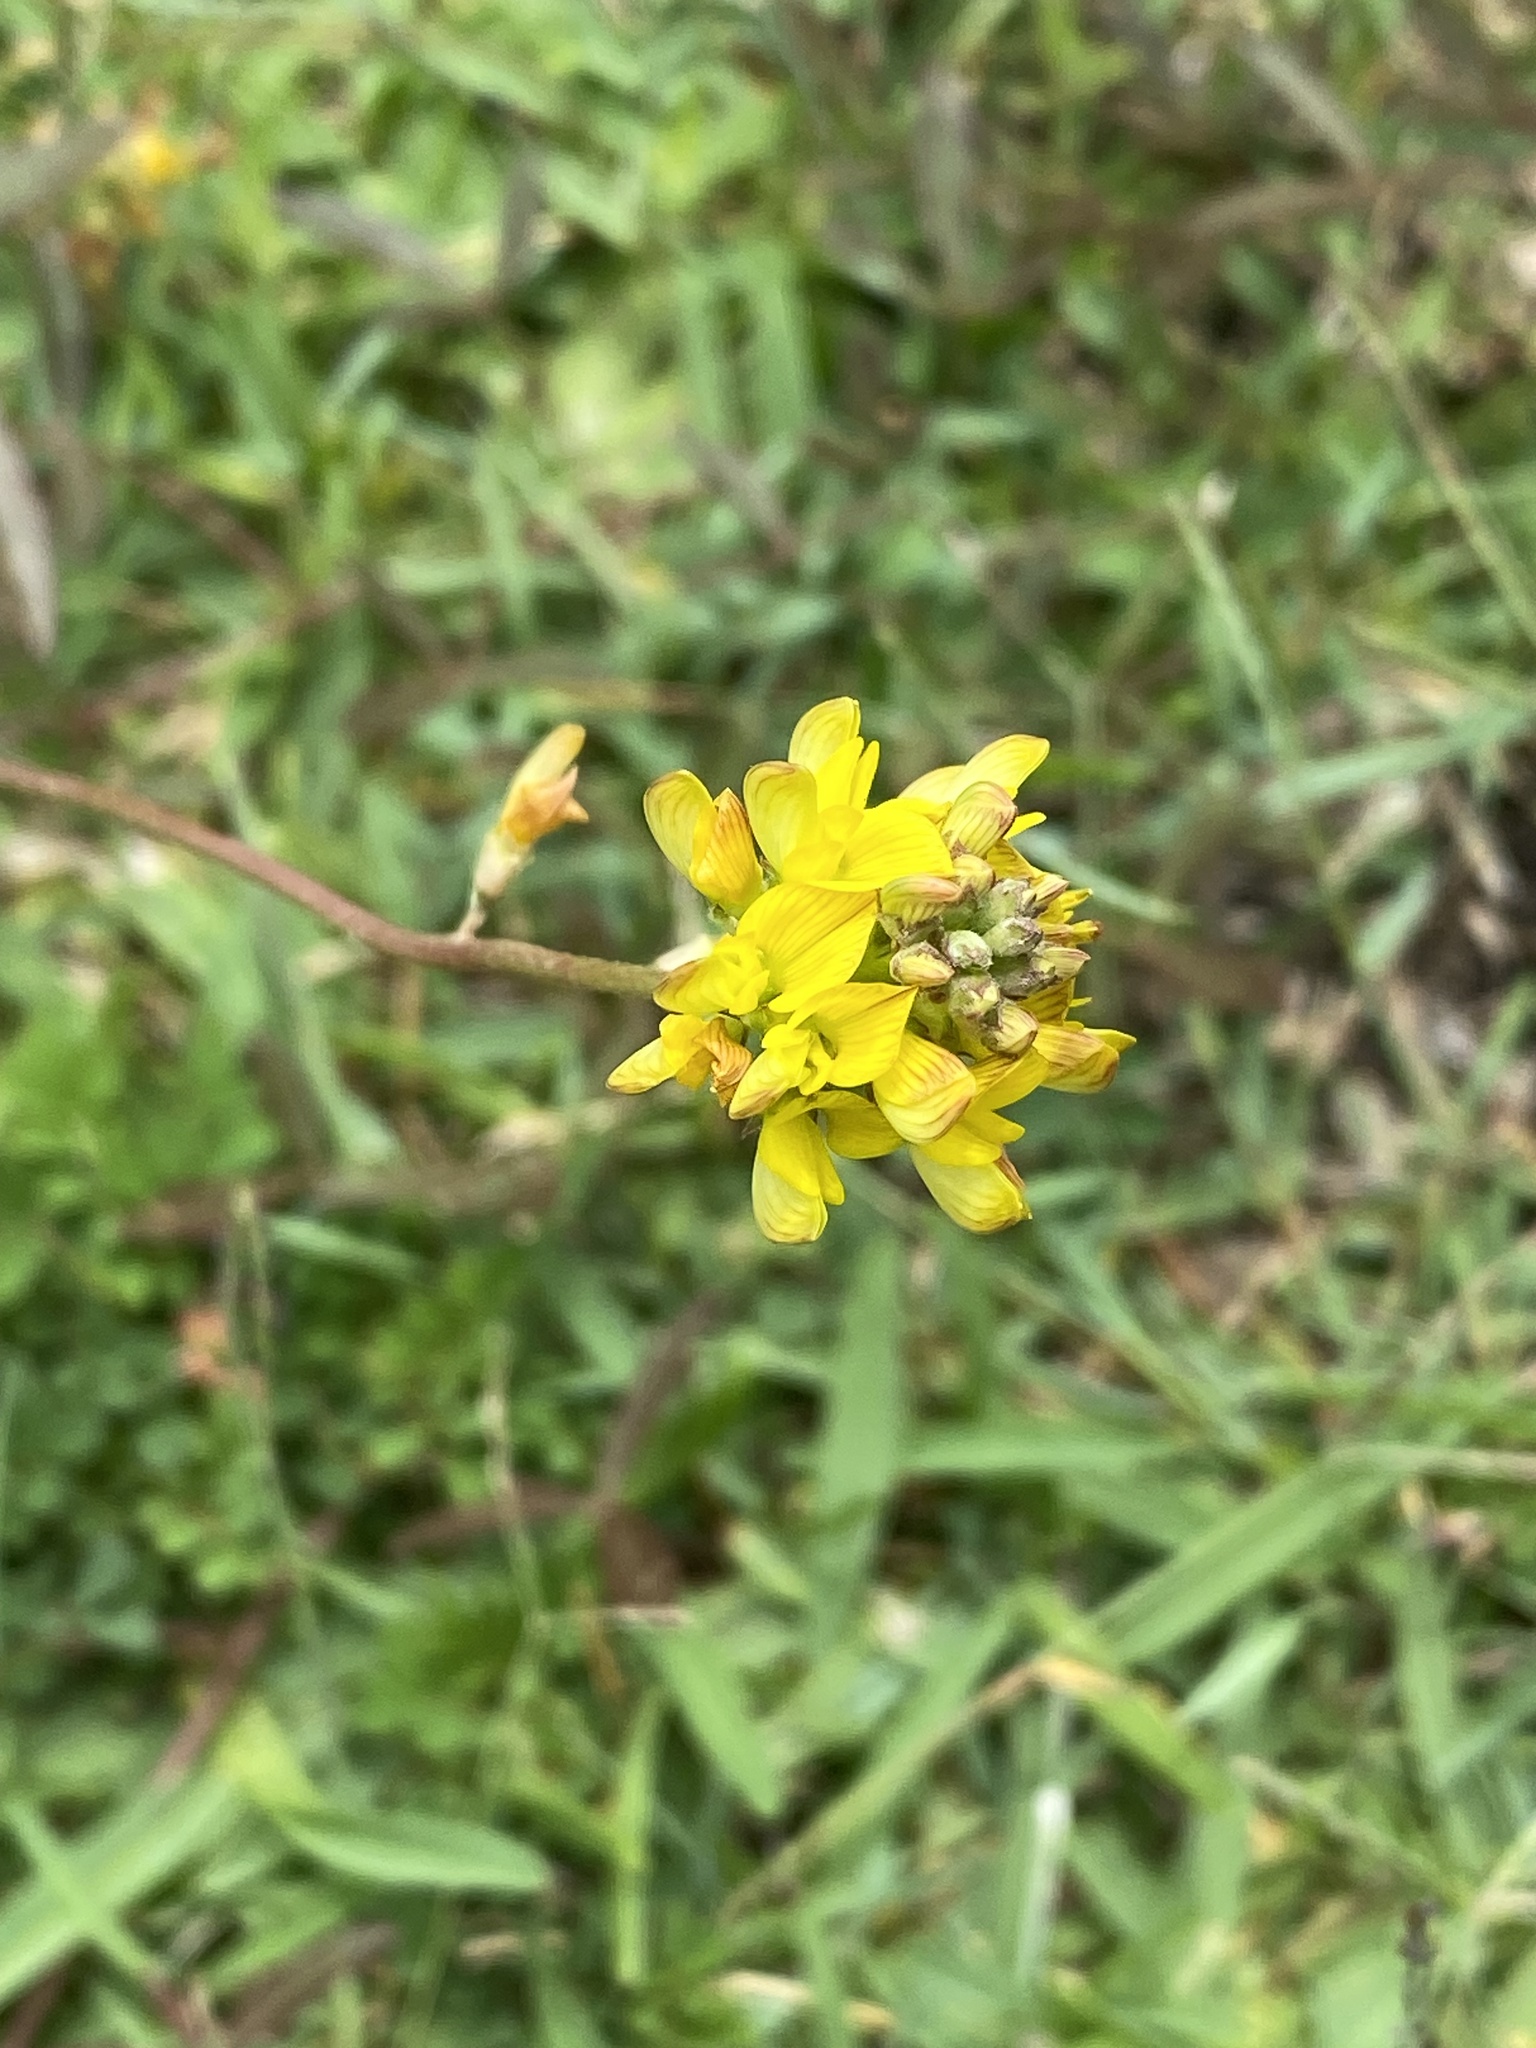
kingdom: Plantae
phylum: Tracheophyta
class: Magnoliopsida
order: Fabales
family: Fabaceae
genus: Listia
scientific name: Listia bainesii
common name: Lotononis
